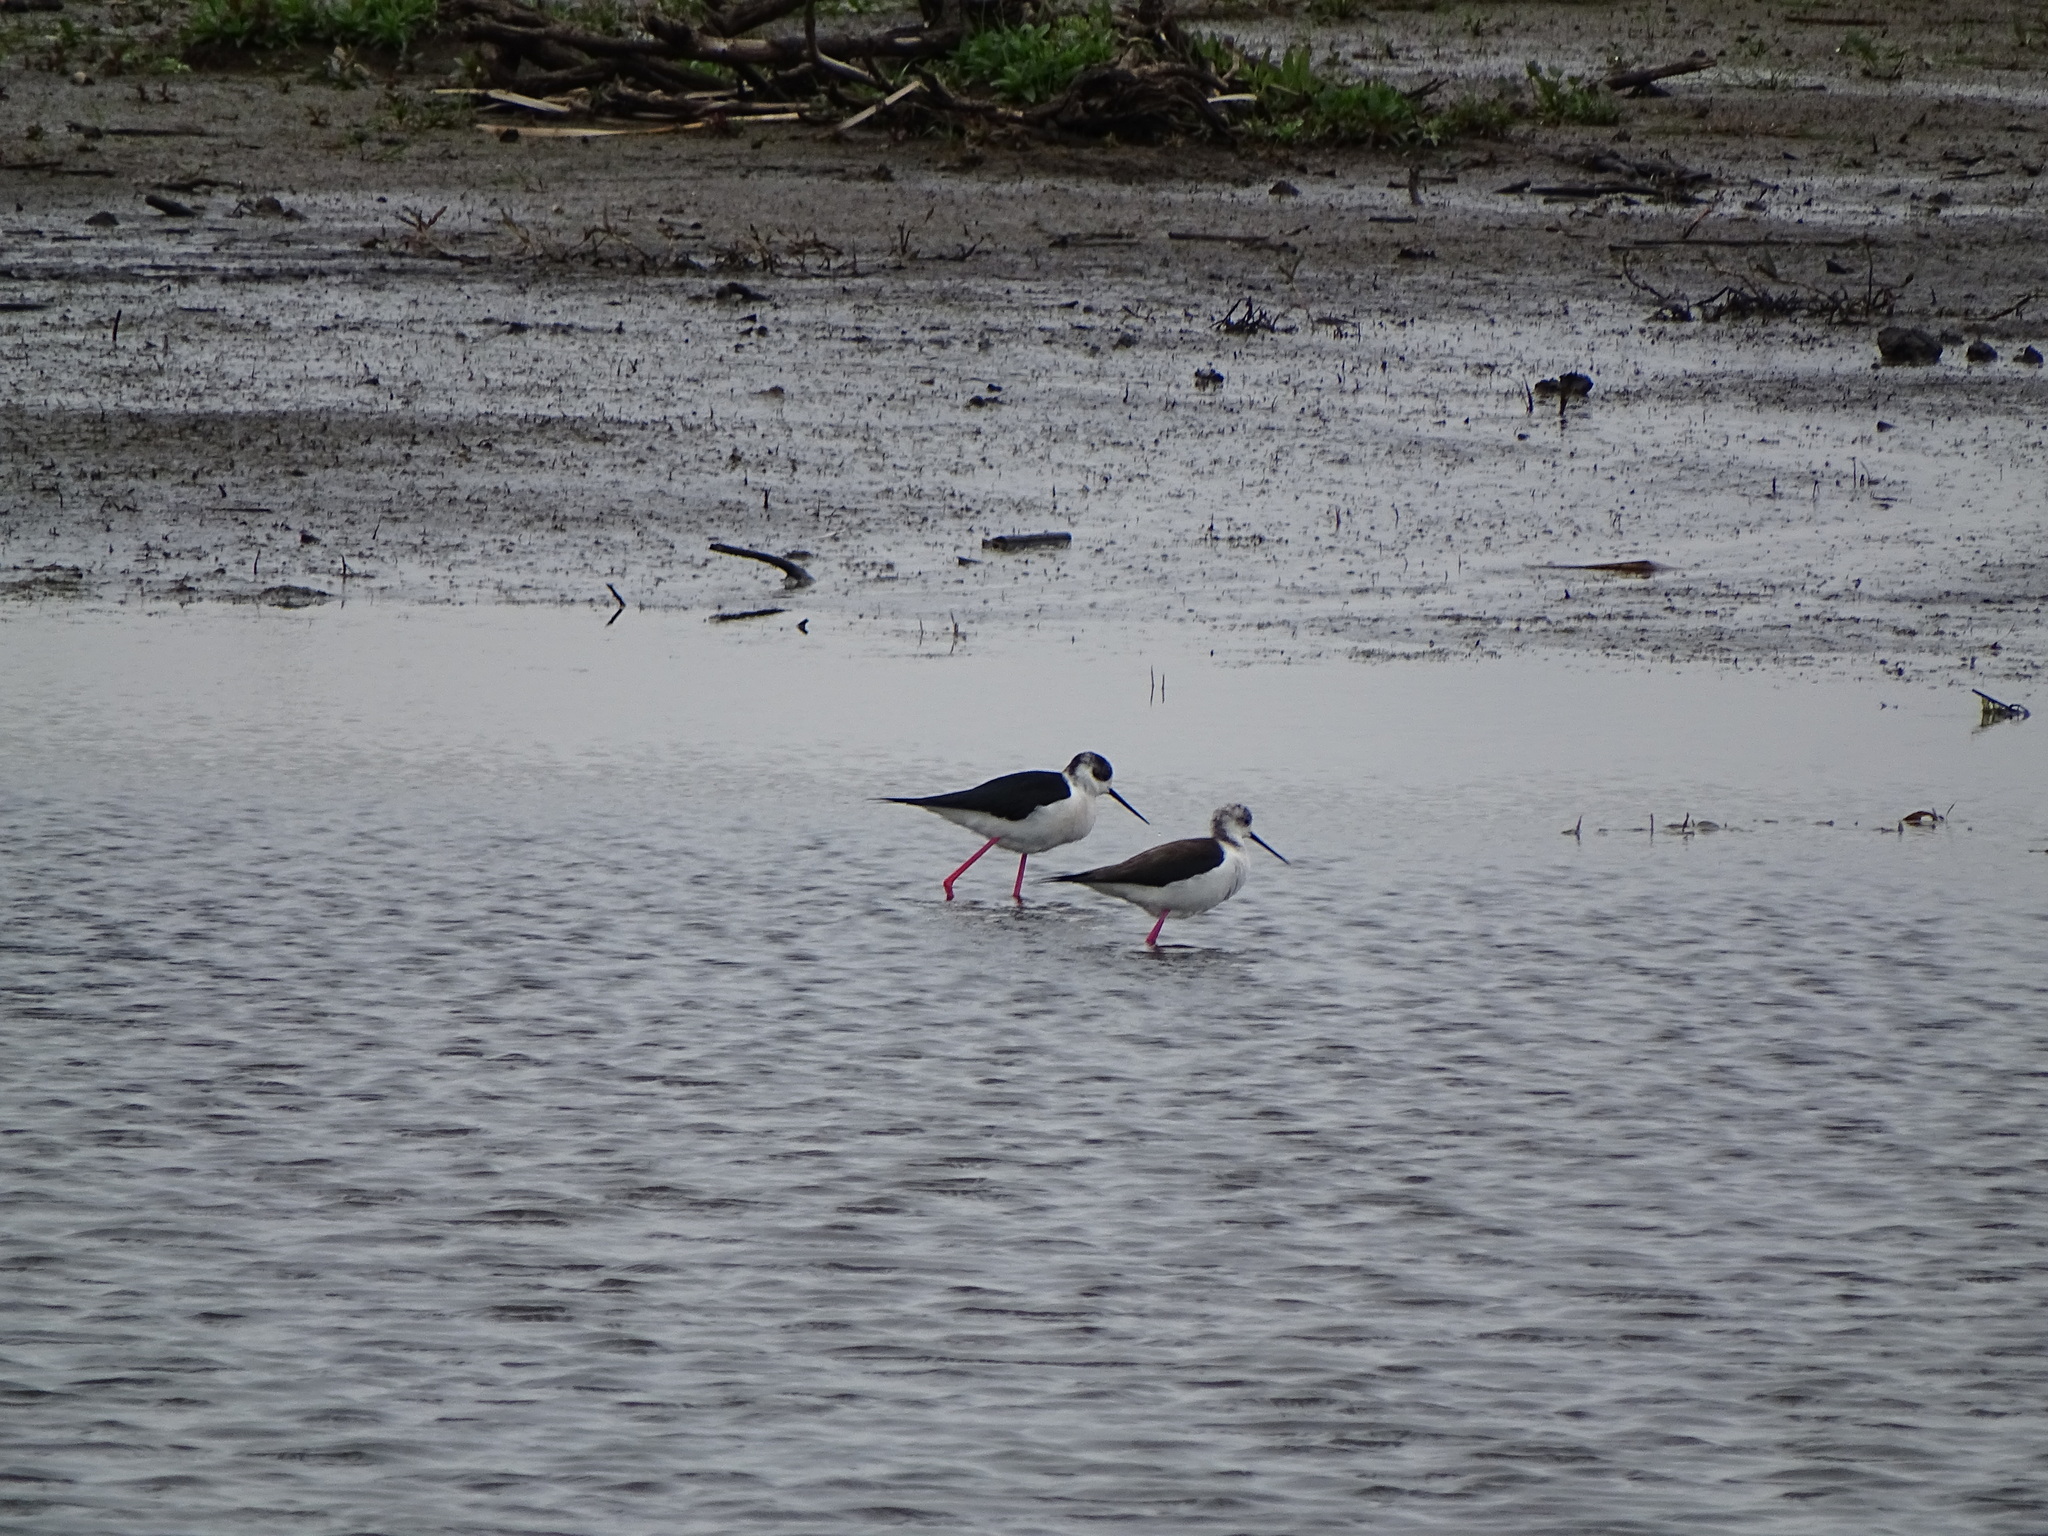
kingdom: Animalia
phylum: Chordata
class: Aves
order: Charadriiformes
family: Recurvirostridae
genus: Himantopus
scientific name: Himantopus himantopus
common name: Black-winged stilt
